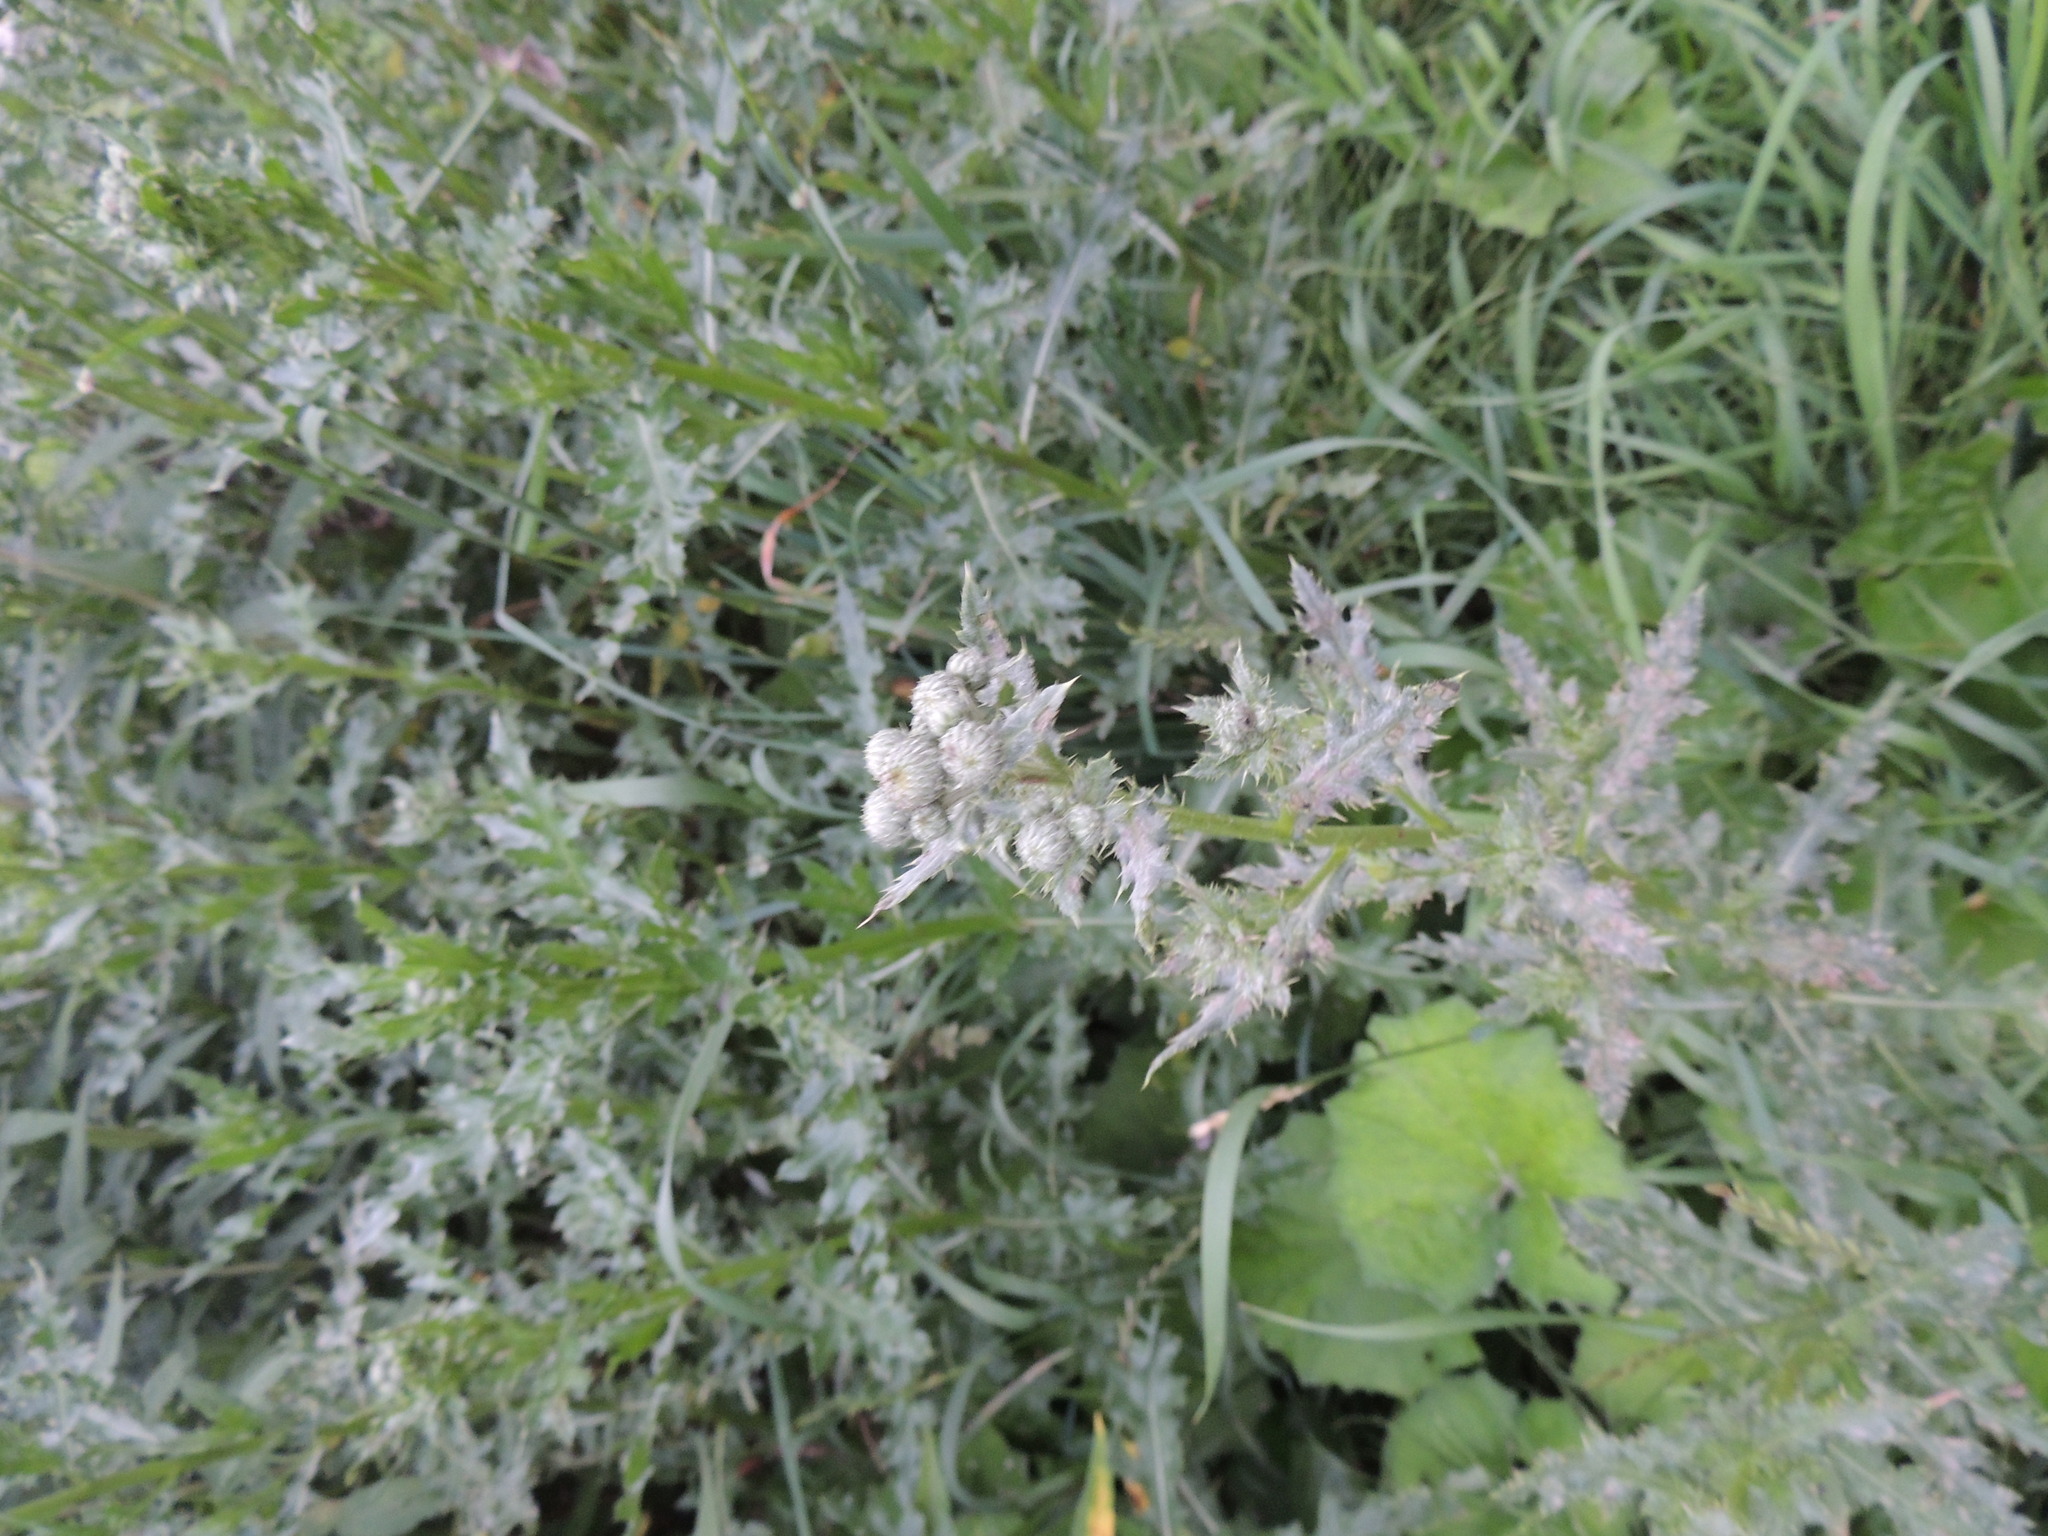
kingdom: Plantae
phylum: Tracheophyta
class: Magnoliopsida
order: Asterales
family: Asteraceae
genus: Cirsium
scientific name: Cirsium arvense
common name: Creeping thistle
